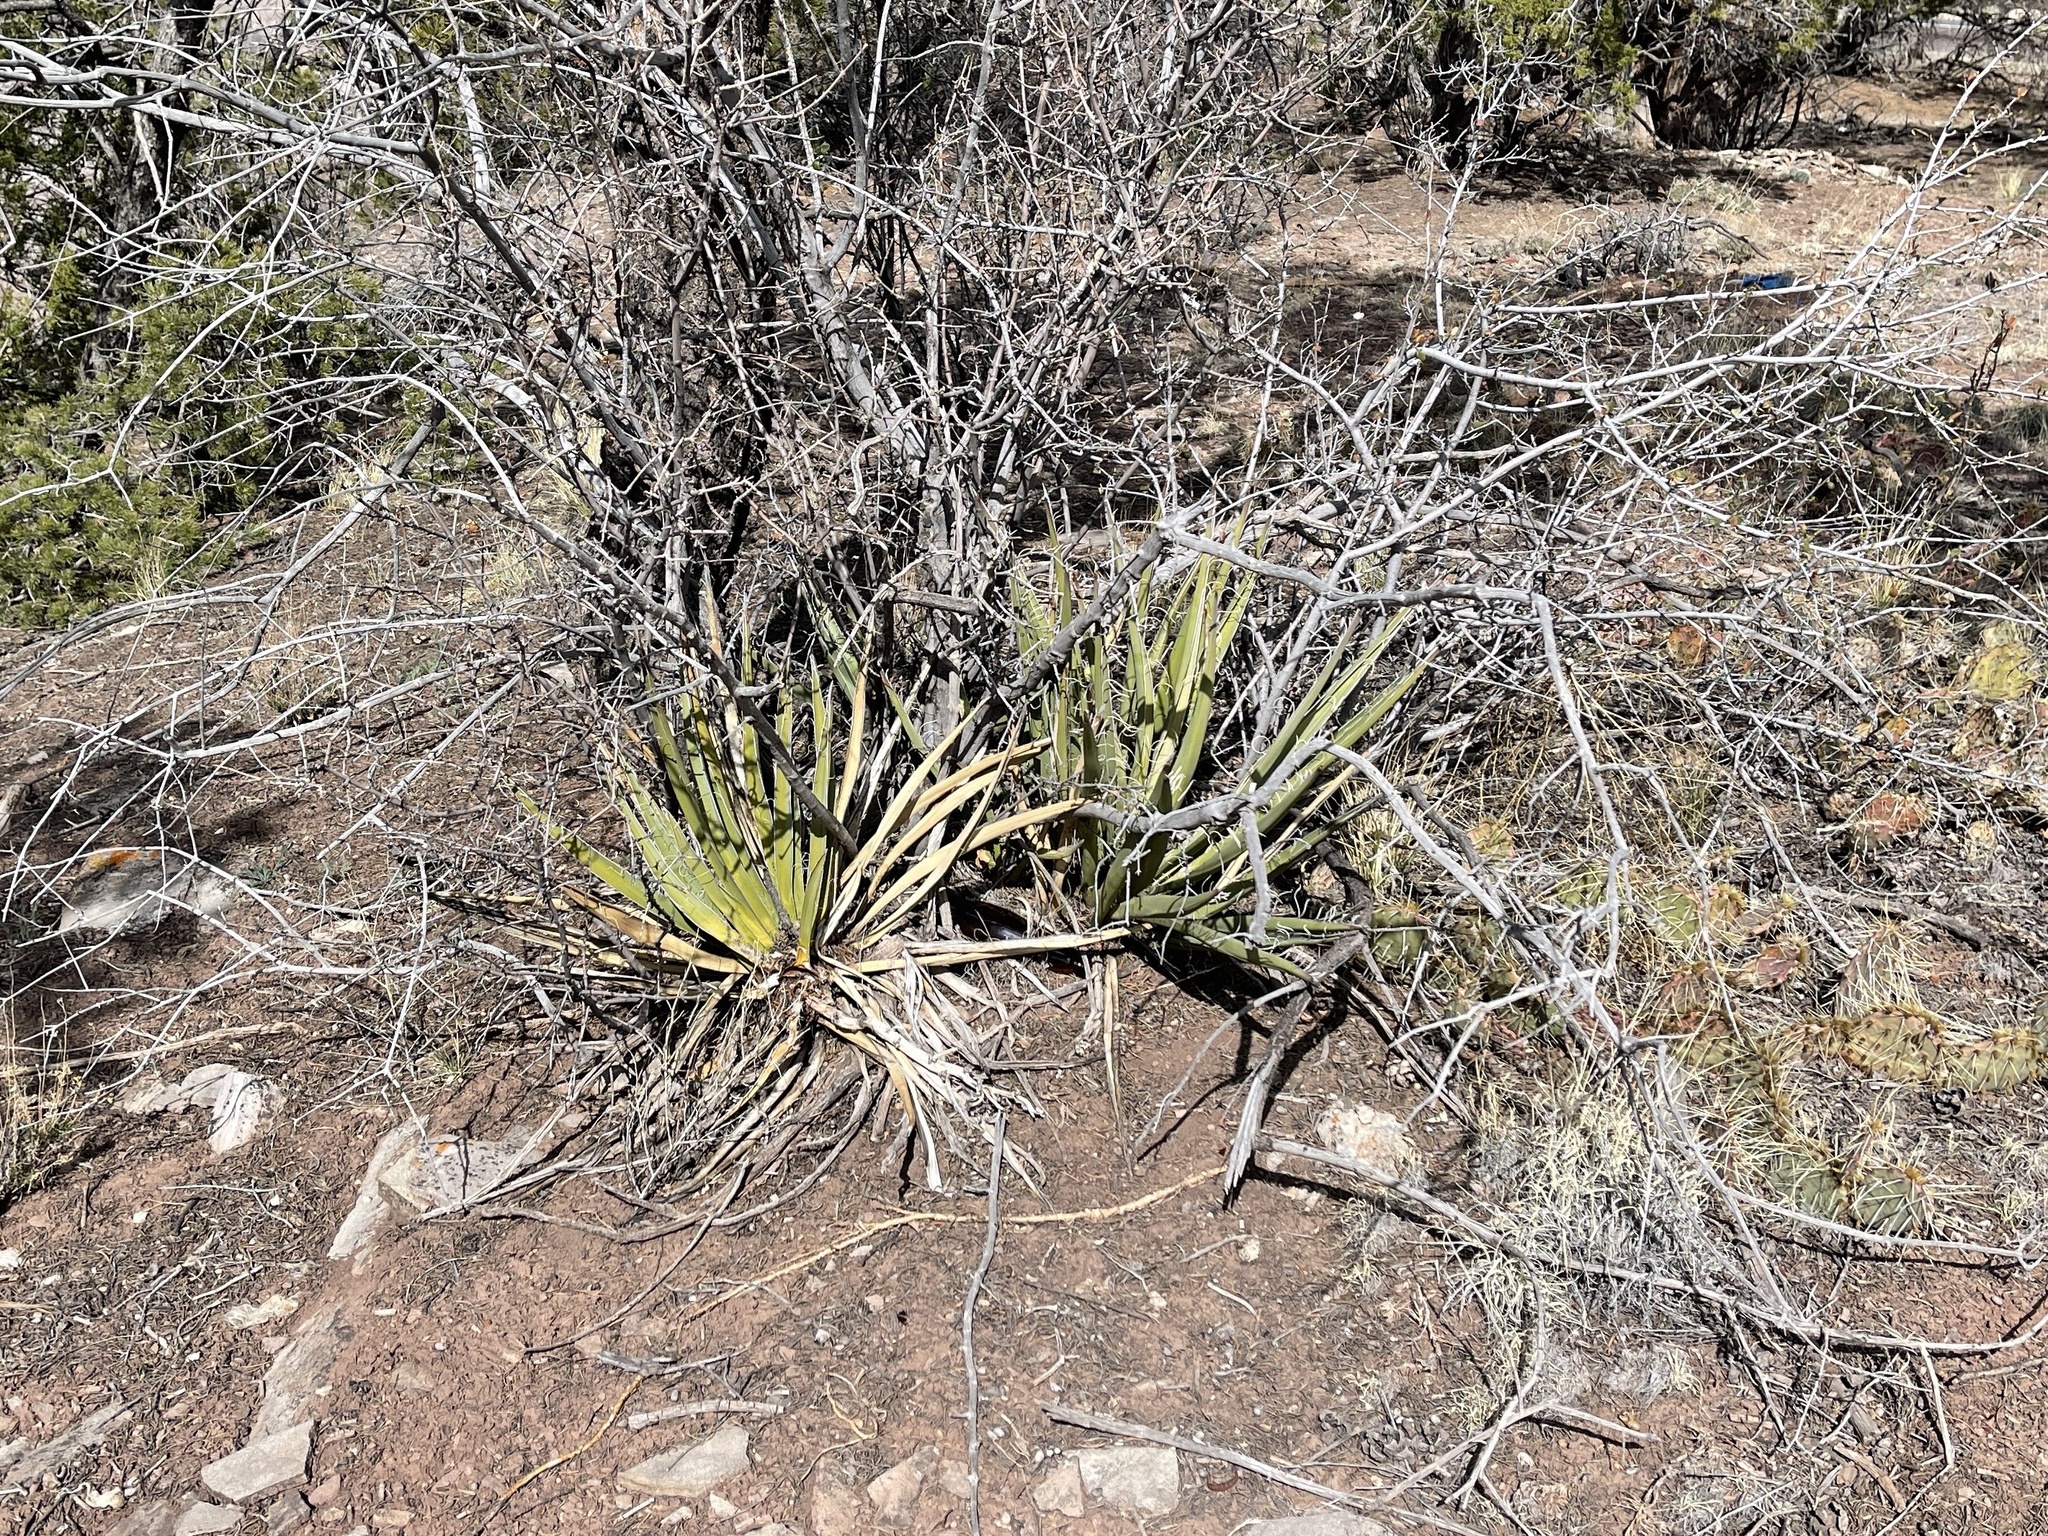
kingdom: Plantae
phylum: Tracheophyta
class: Liliopsida
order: Asparagales
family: Asparagaceae
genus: Yucca
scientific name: Yucca baccata
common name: Banana yucca
